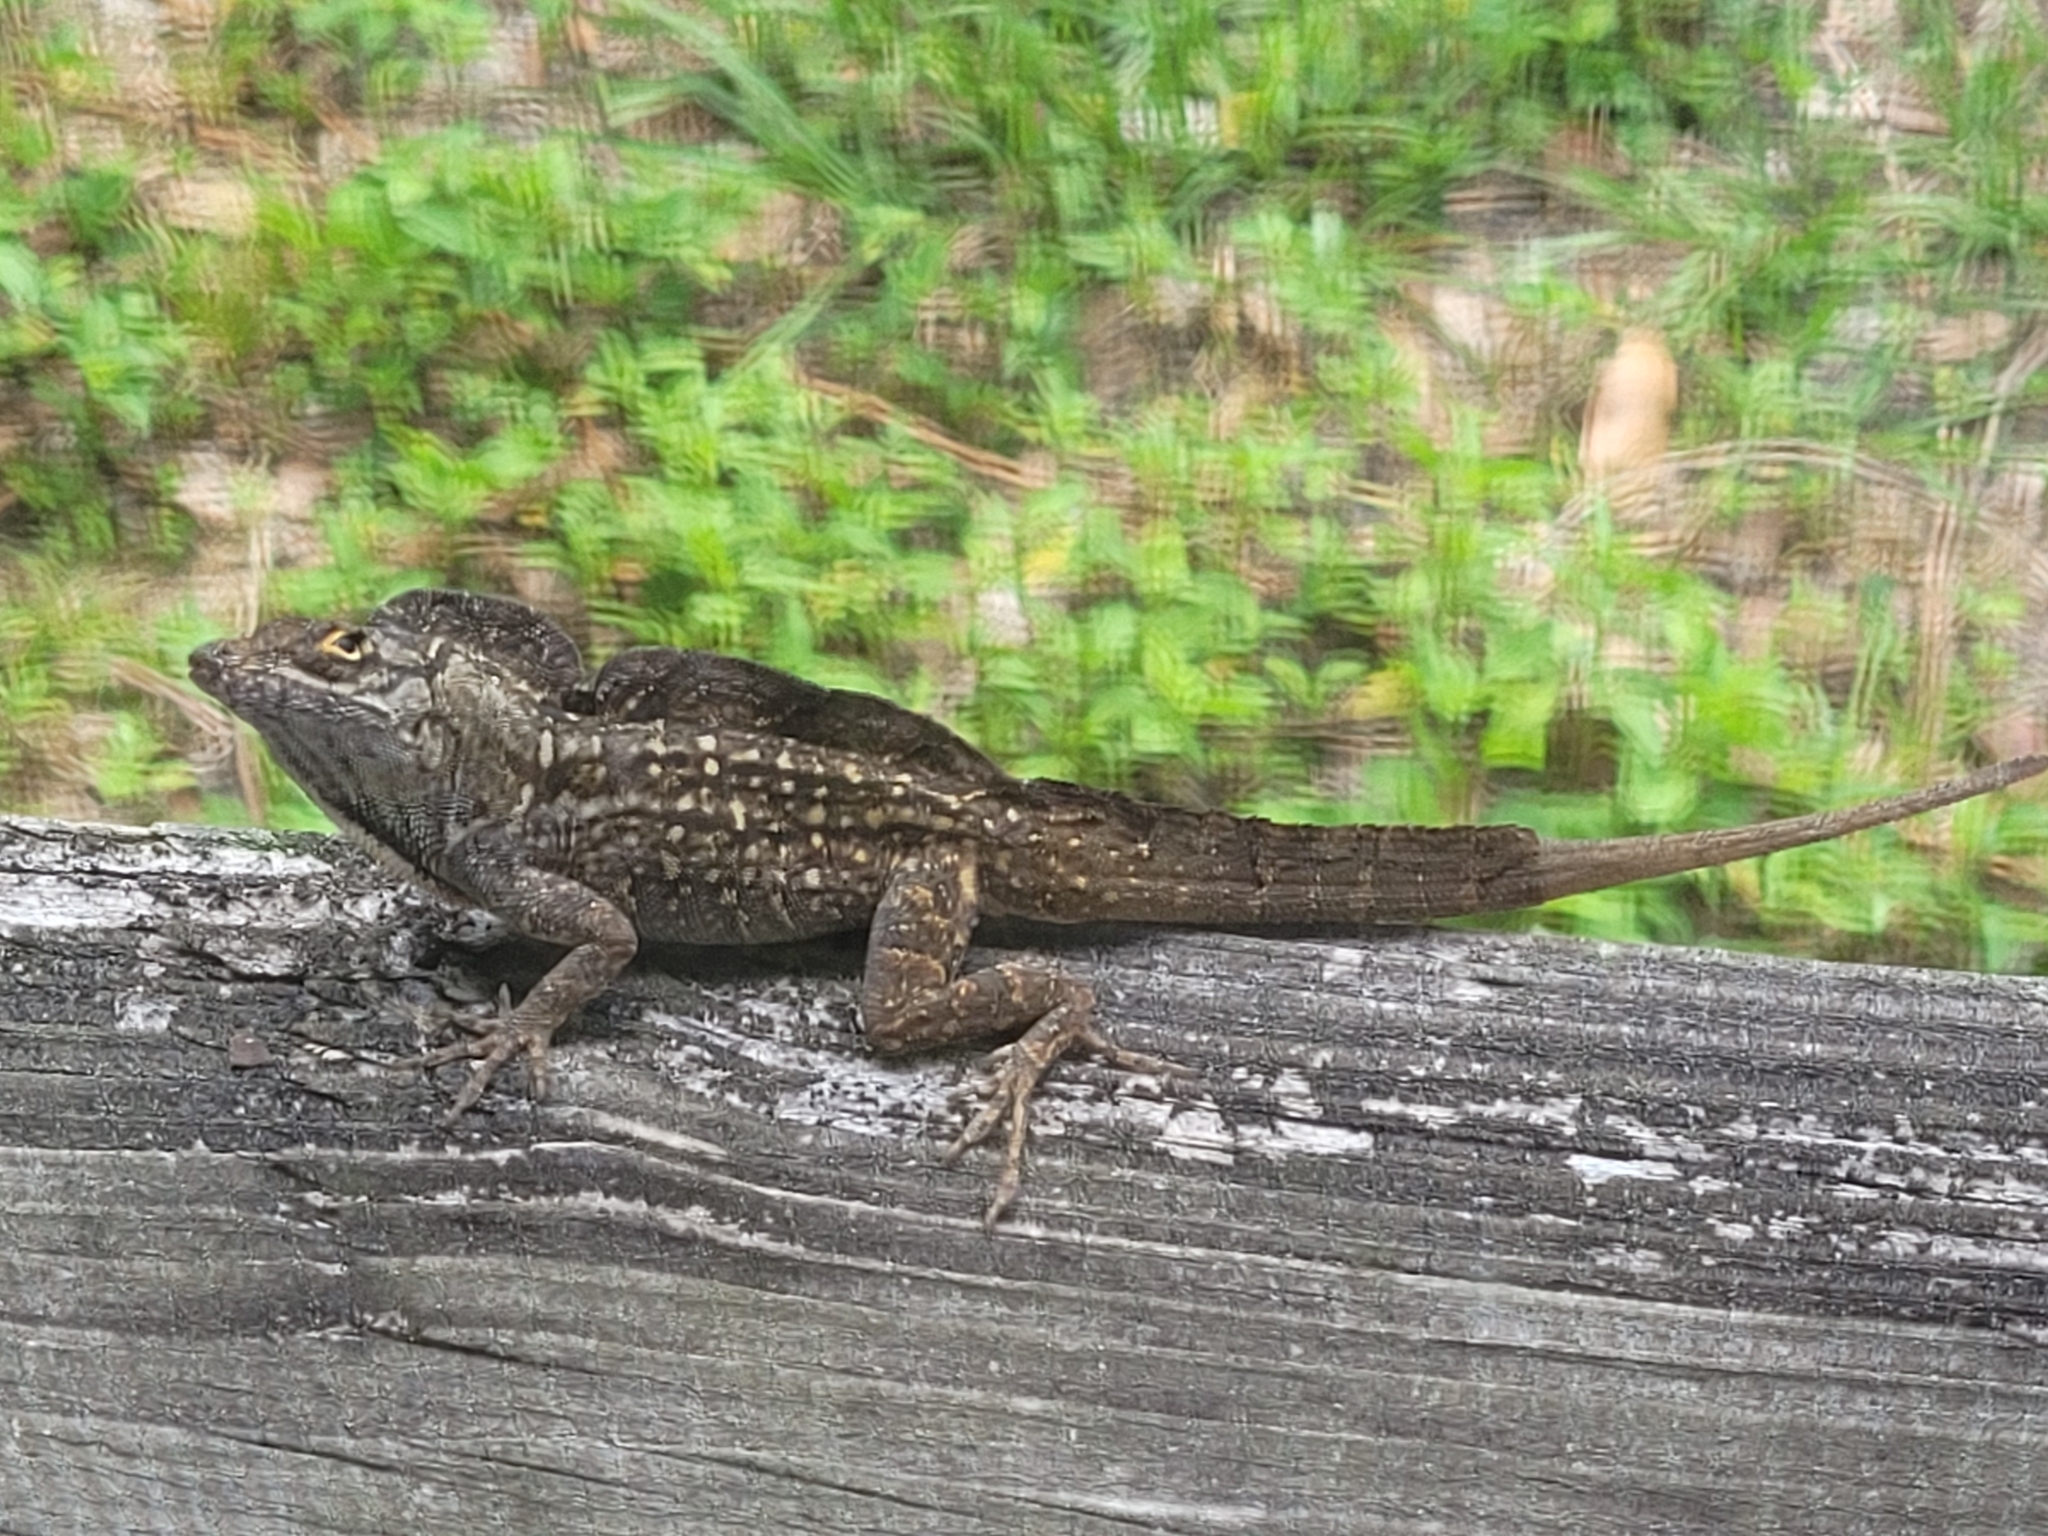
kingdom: Animalia
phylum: Chordata
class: Squamata
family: Dactyloidae
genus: Anolis
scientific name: Anolis sagrei
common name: Brown anole
